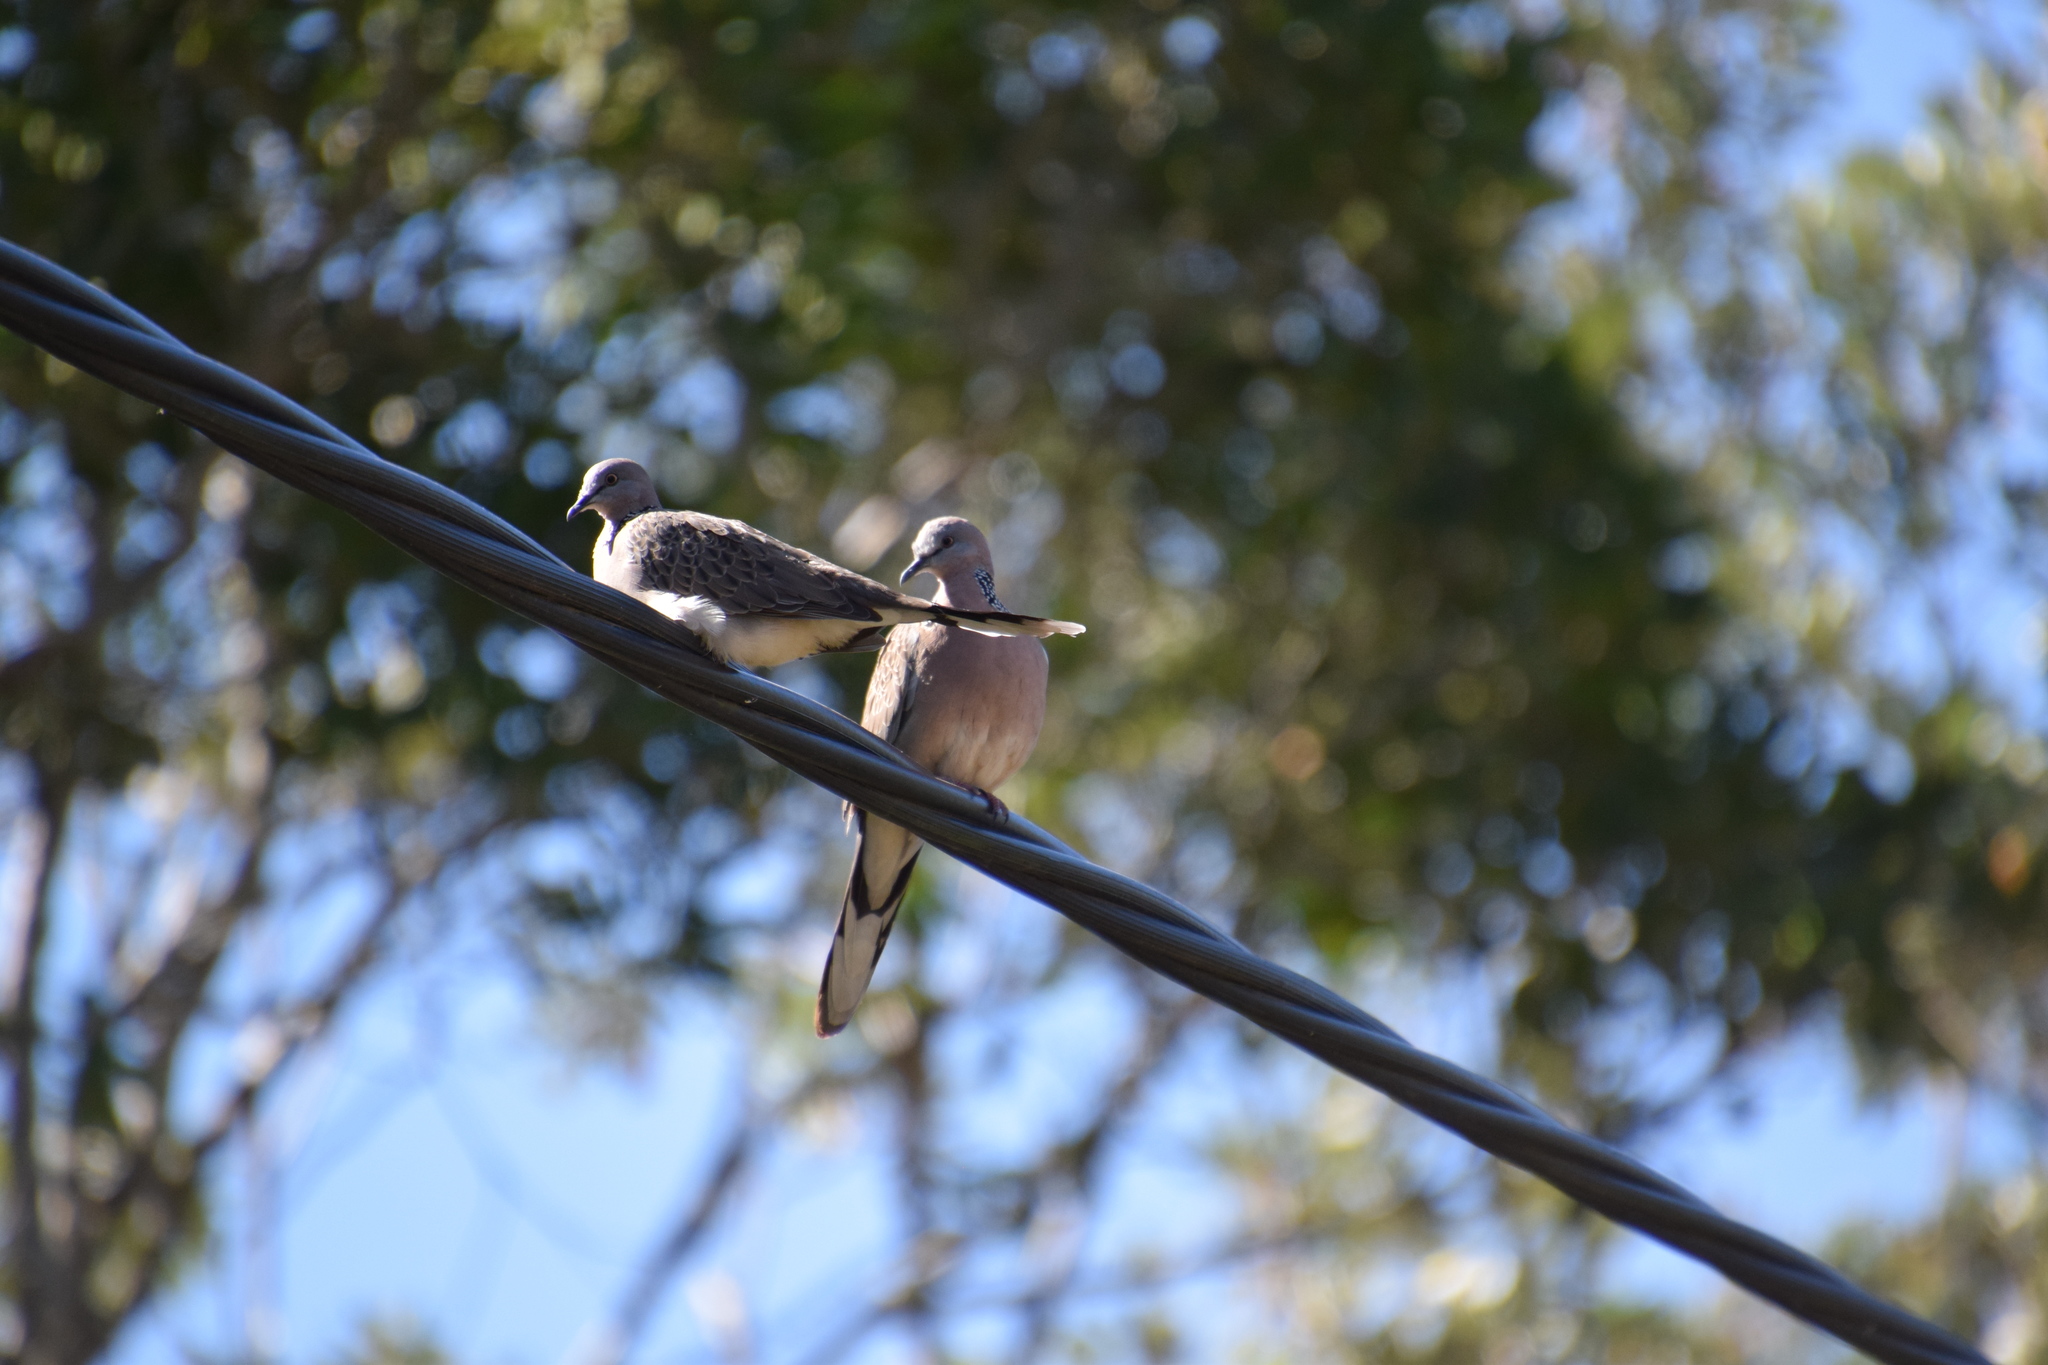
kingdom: Animalia
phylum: Chordata
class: Aves
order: Columbiformes
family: Columbidae
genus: Spilopelia
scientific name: Spilopelia chinensis
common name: Spotted dove
